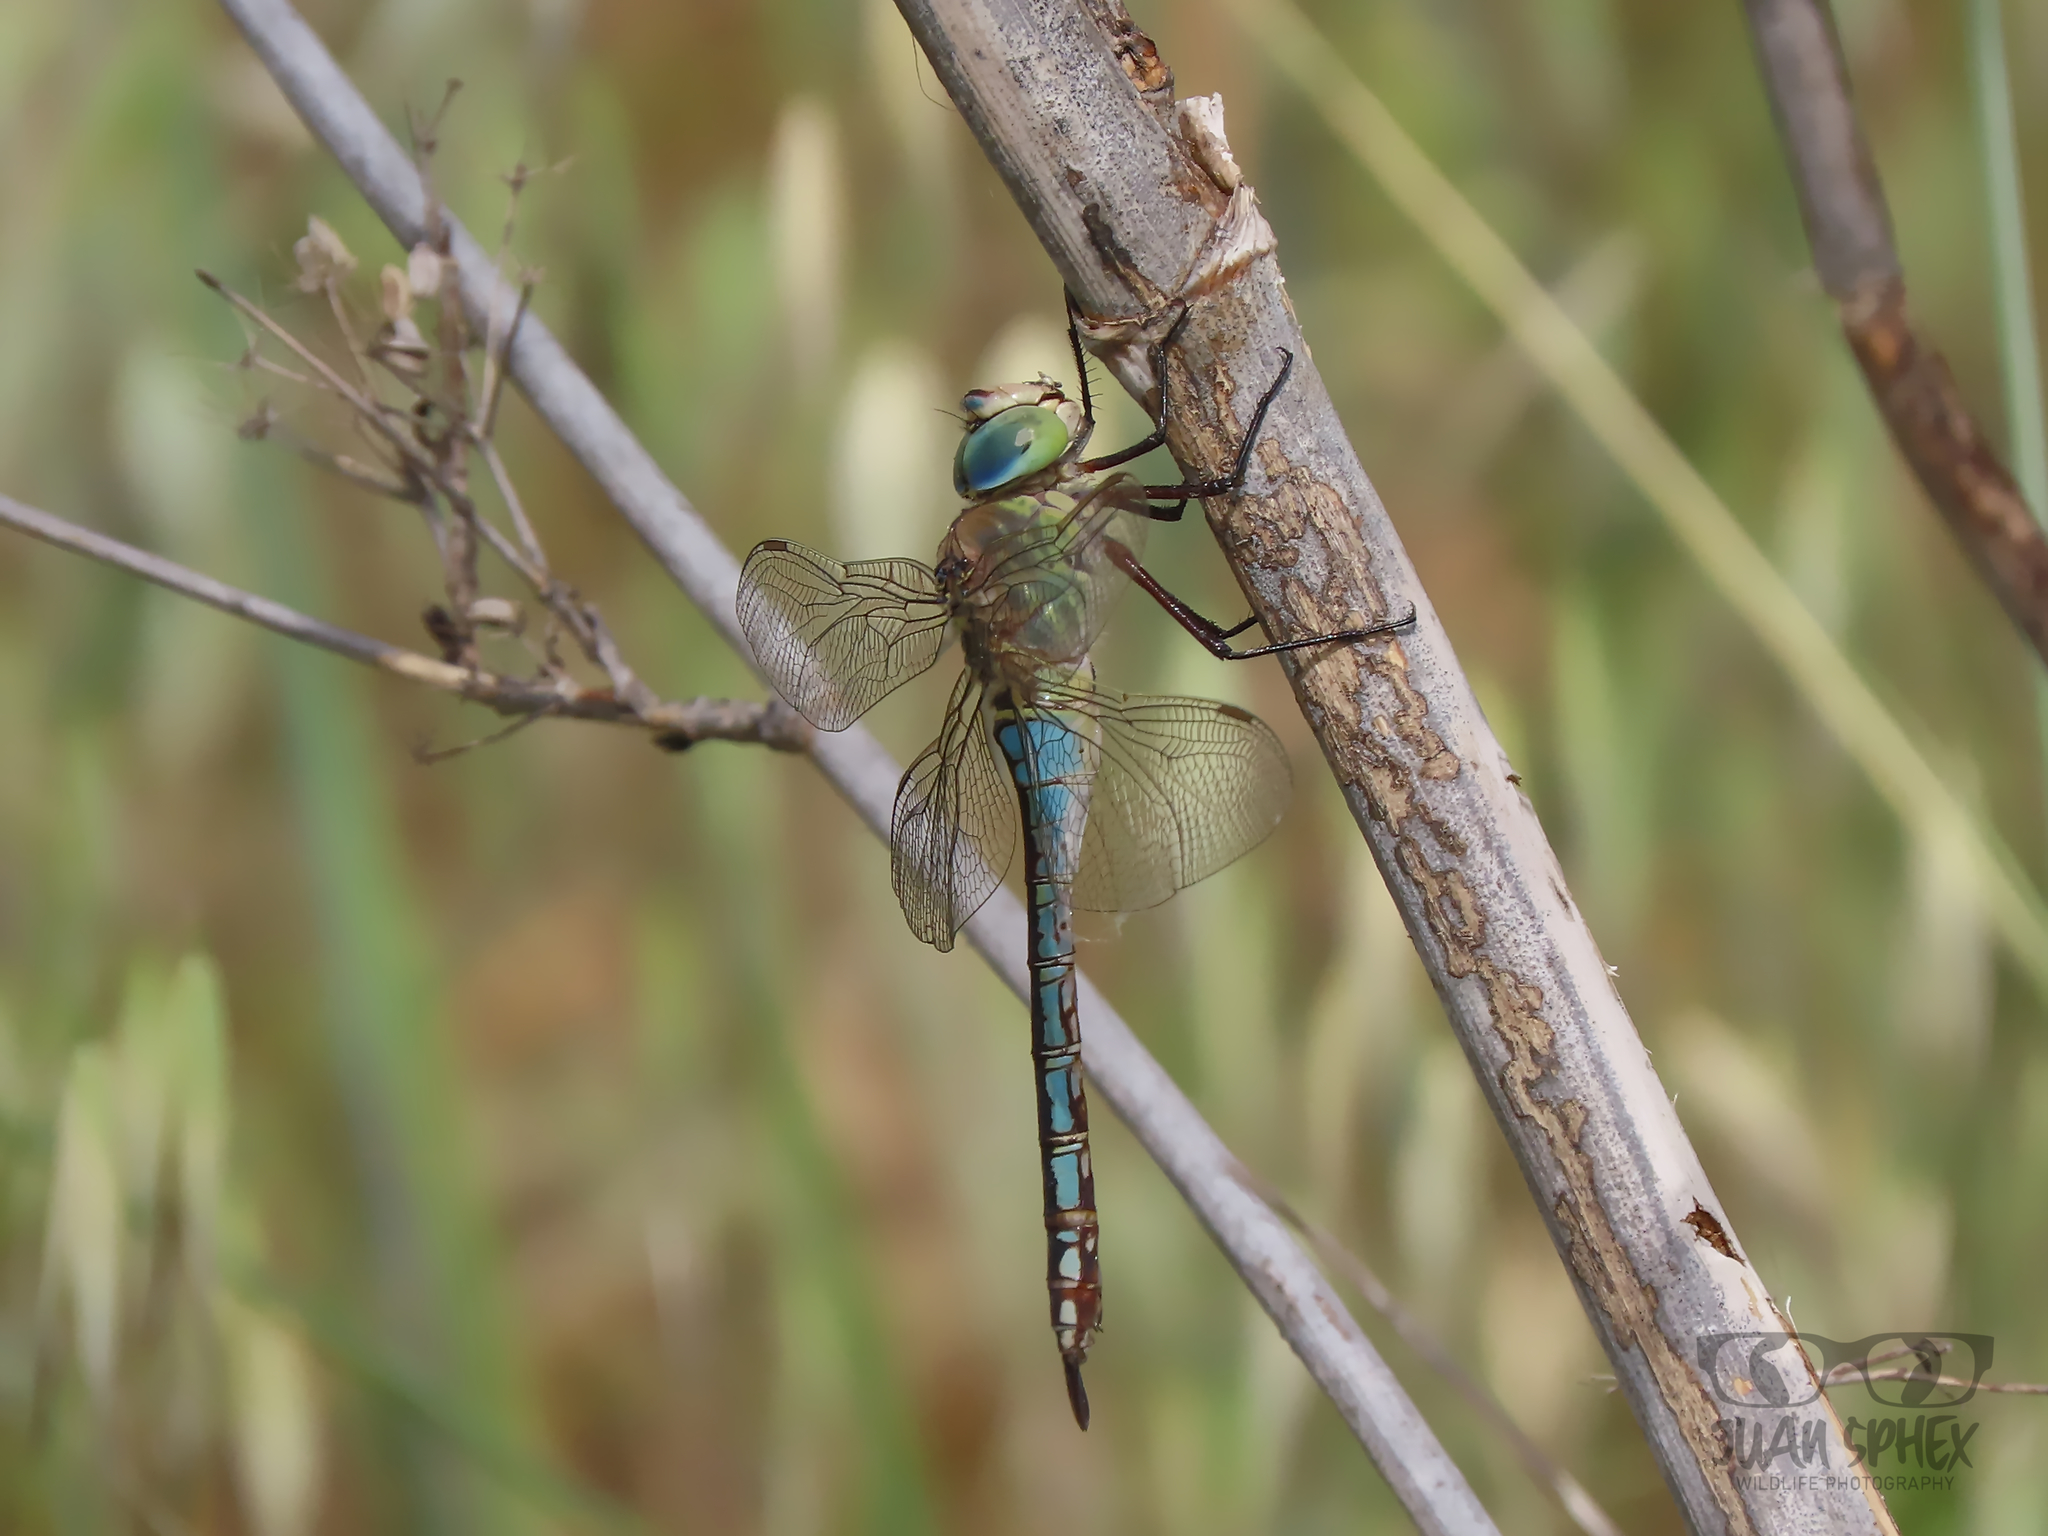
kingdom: Animalia
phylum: Arthropoda
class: Insecta
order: Odonata
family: Aeshnidae
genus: Anax
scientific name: Anax imperator
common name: Emperor dragonfly
